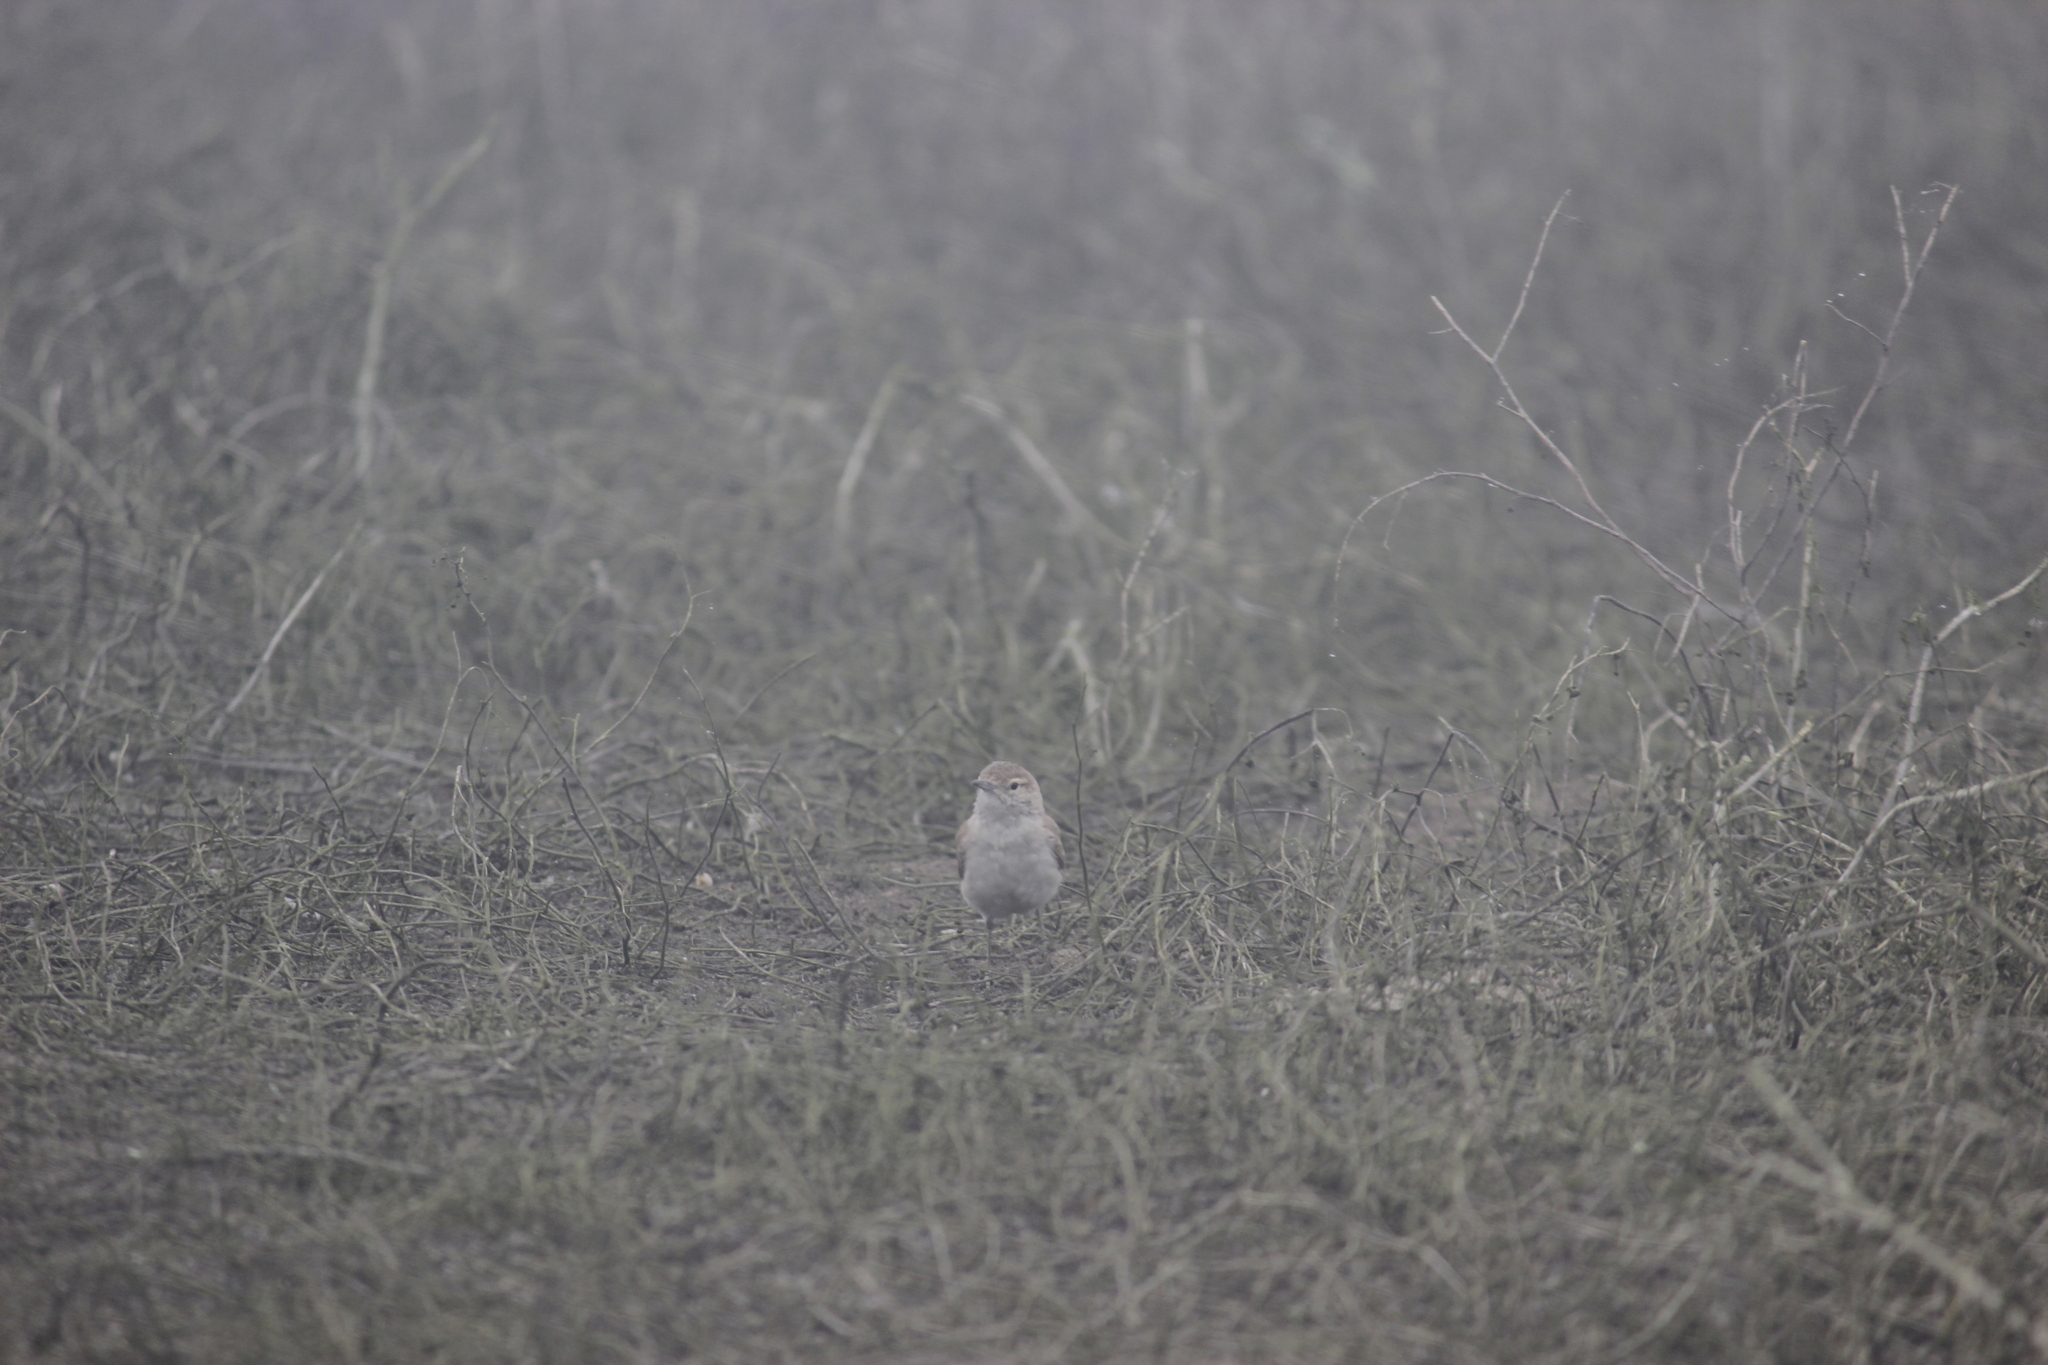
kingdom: Animalia
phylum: Chordata
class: Aves
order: Passeriformes
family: Furnariidae
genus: Geositta
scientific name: Geositta peruviana
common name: Coastal miner
